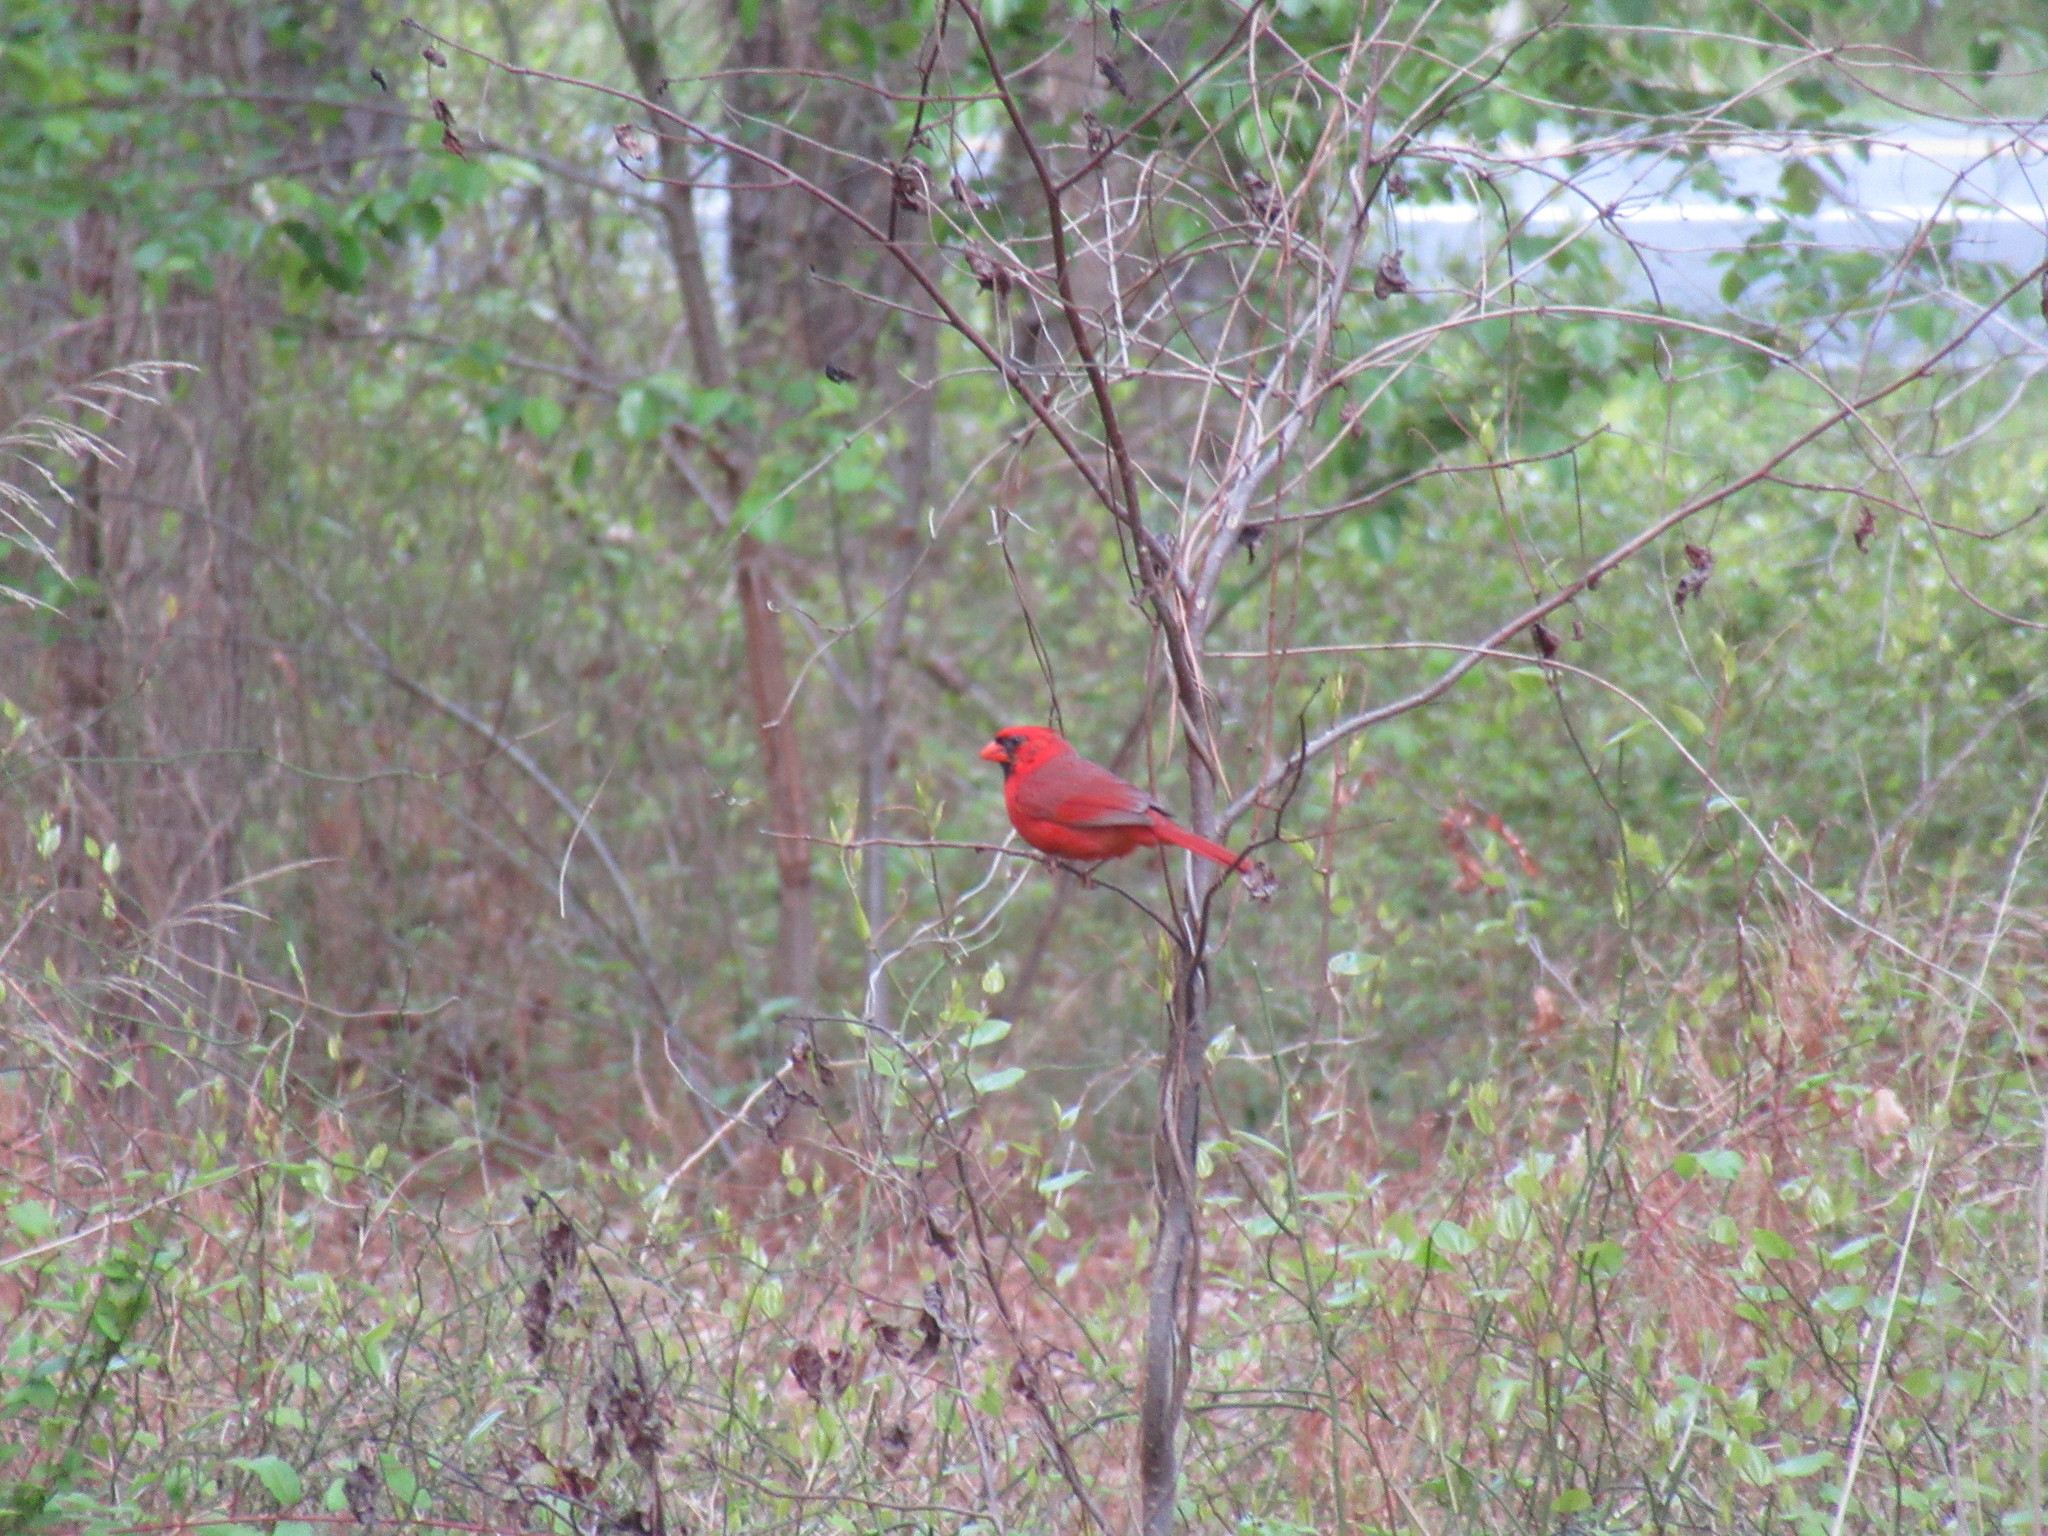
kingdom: Animalia
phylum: Chordata
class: Aves
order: Passeriformes
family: Cardinalidae
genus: Cardinalis
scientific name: Cardinalis cardinalis
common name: Northern cardinal
